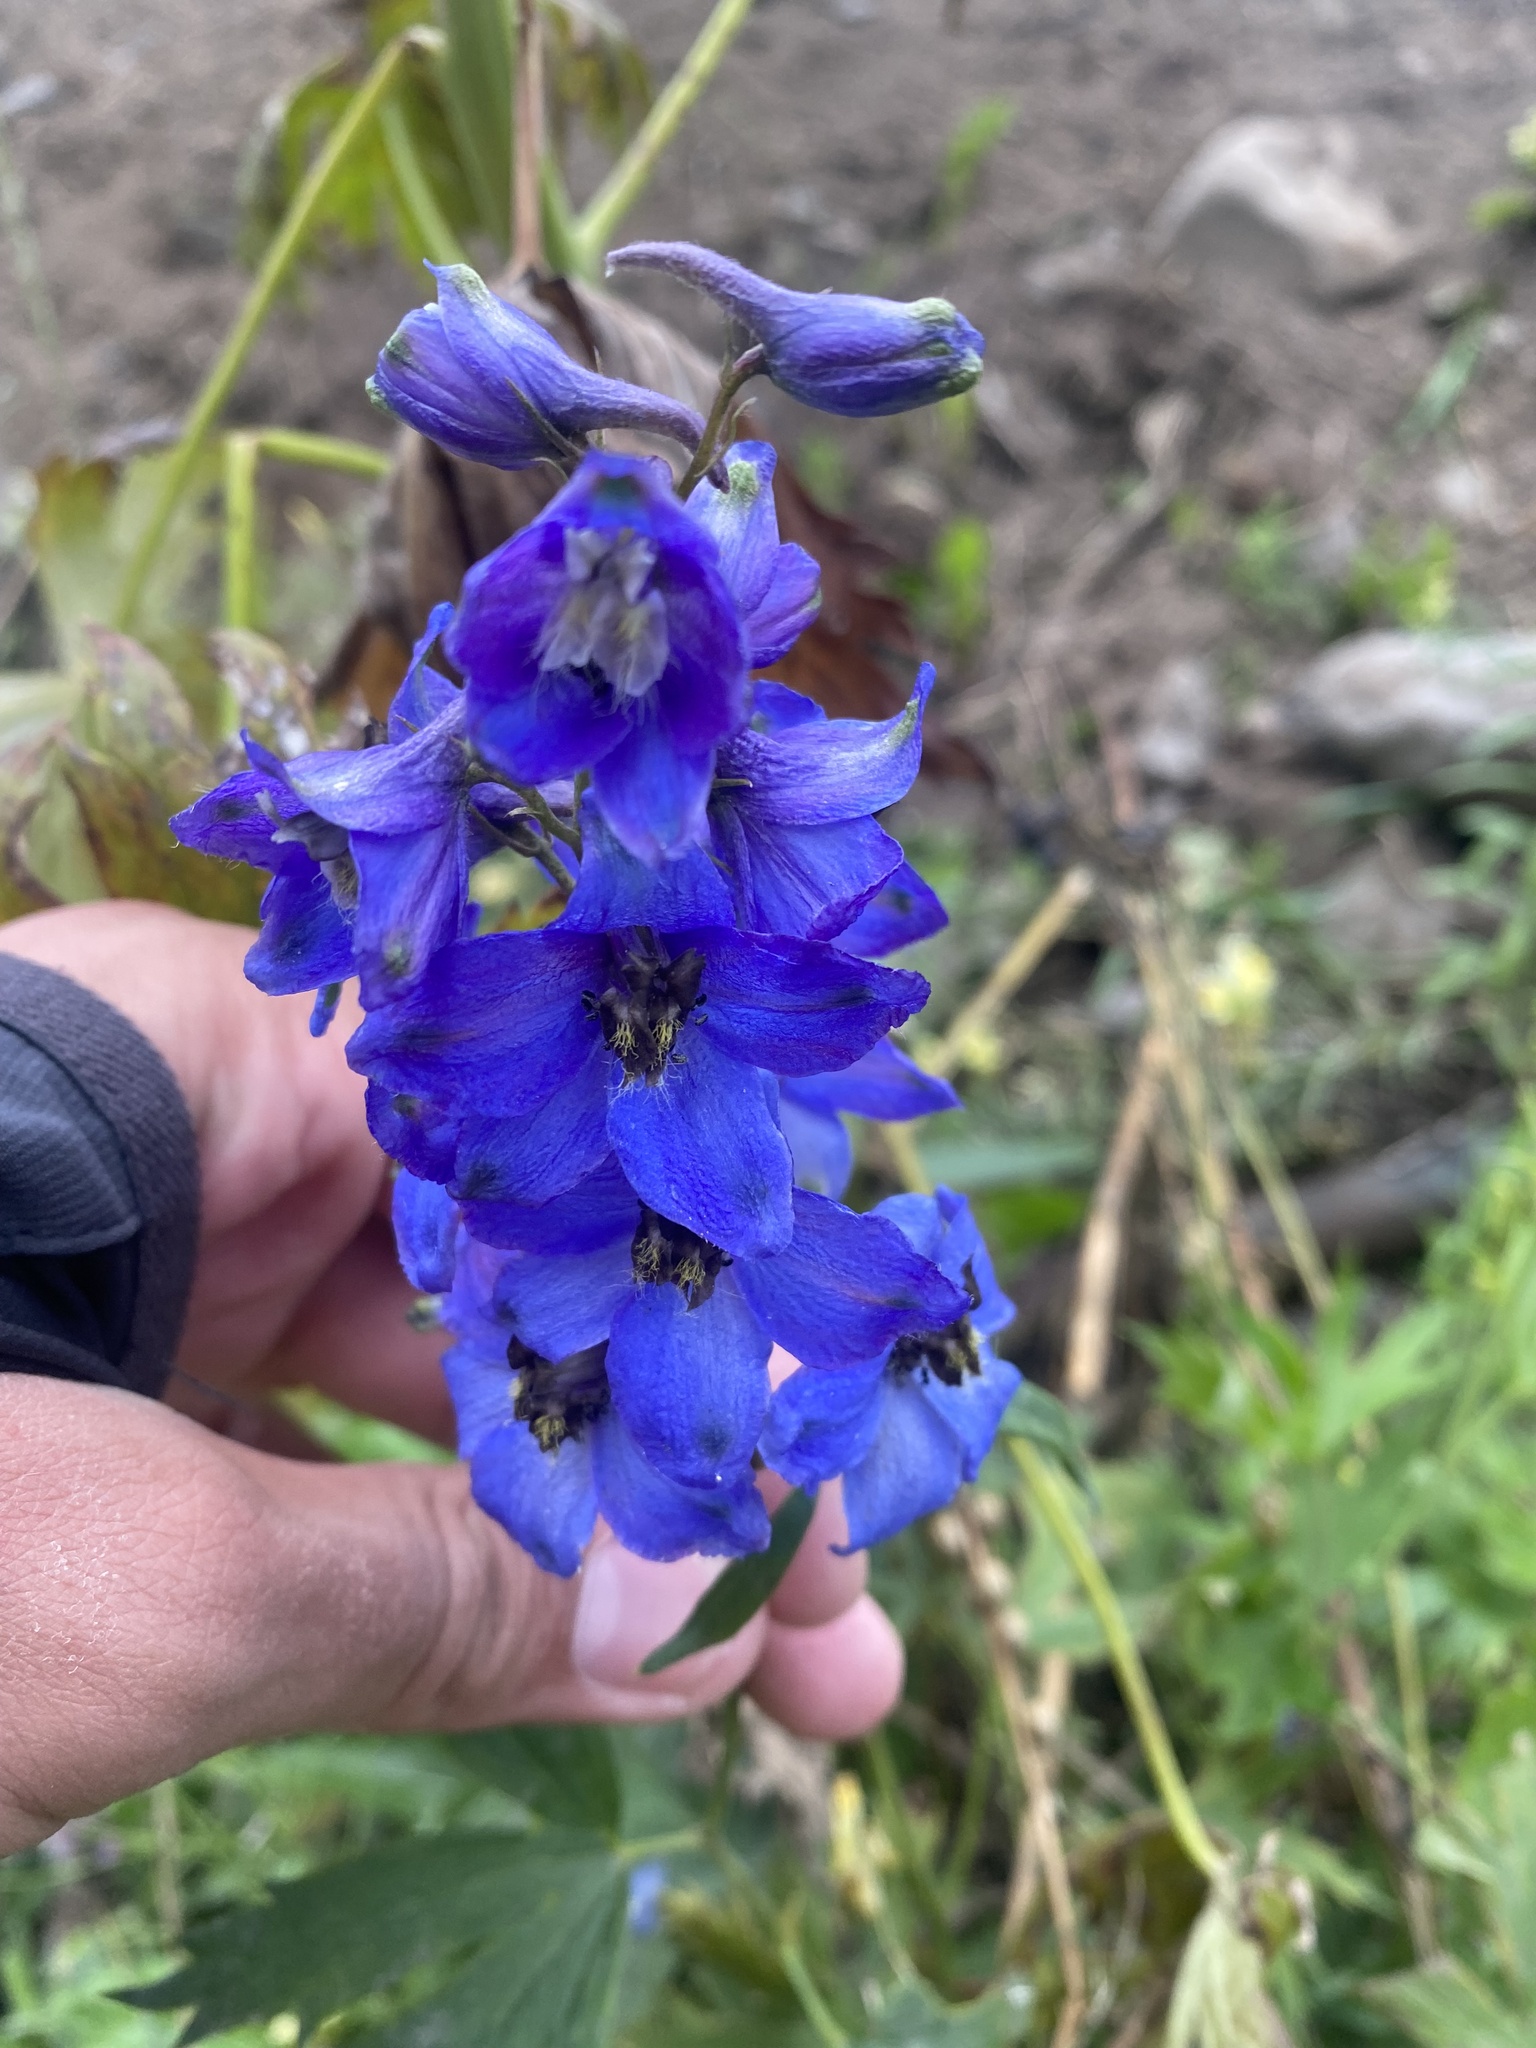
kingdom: Plantae
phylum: Tracheophyta
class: Magnoliopsida
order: Ranunculales
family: Ranunculaceae
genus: Delphinium
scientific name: Delphinium brachycentrum
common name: Arctic larkspur
